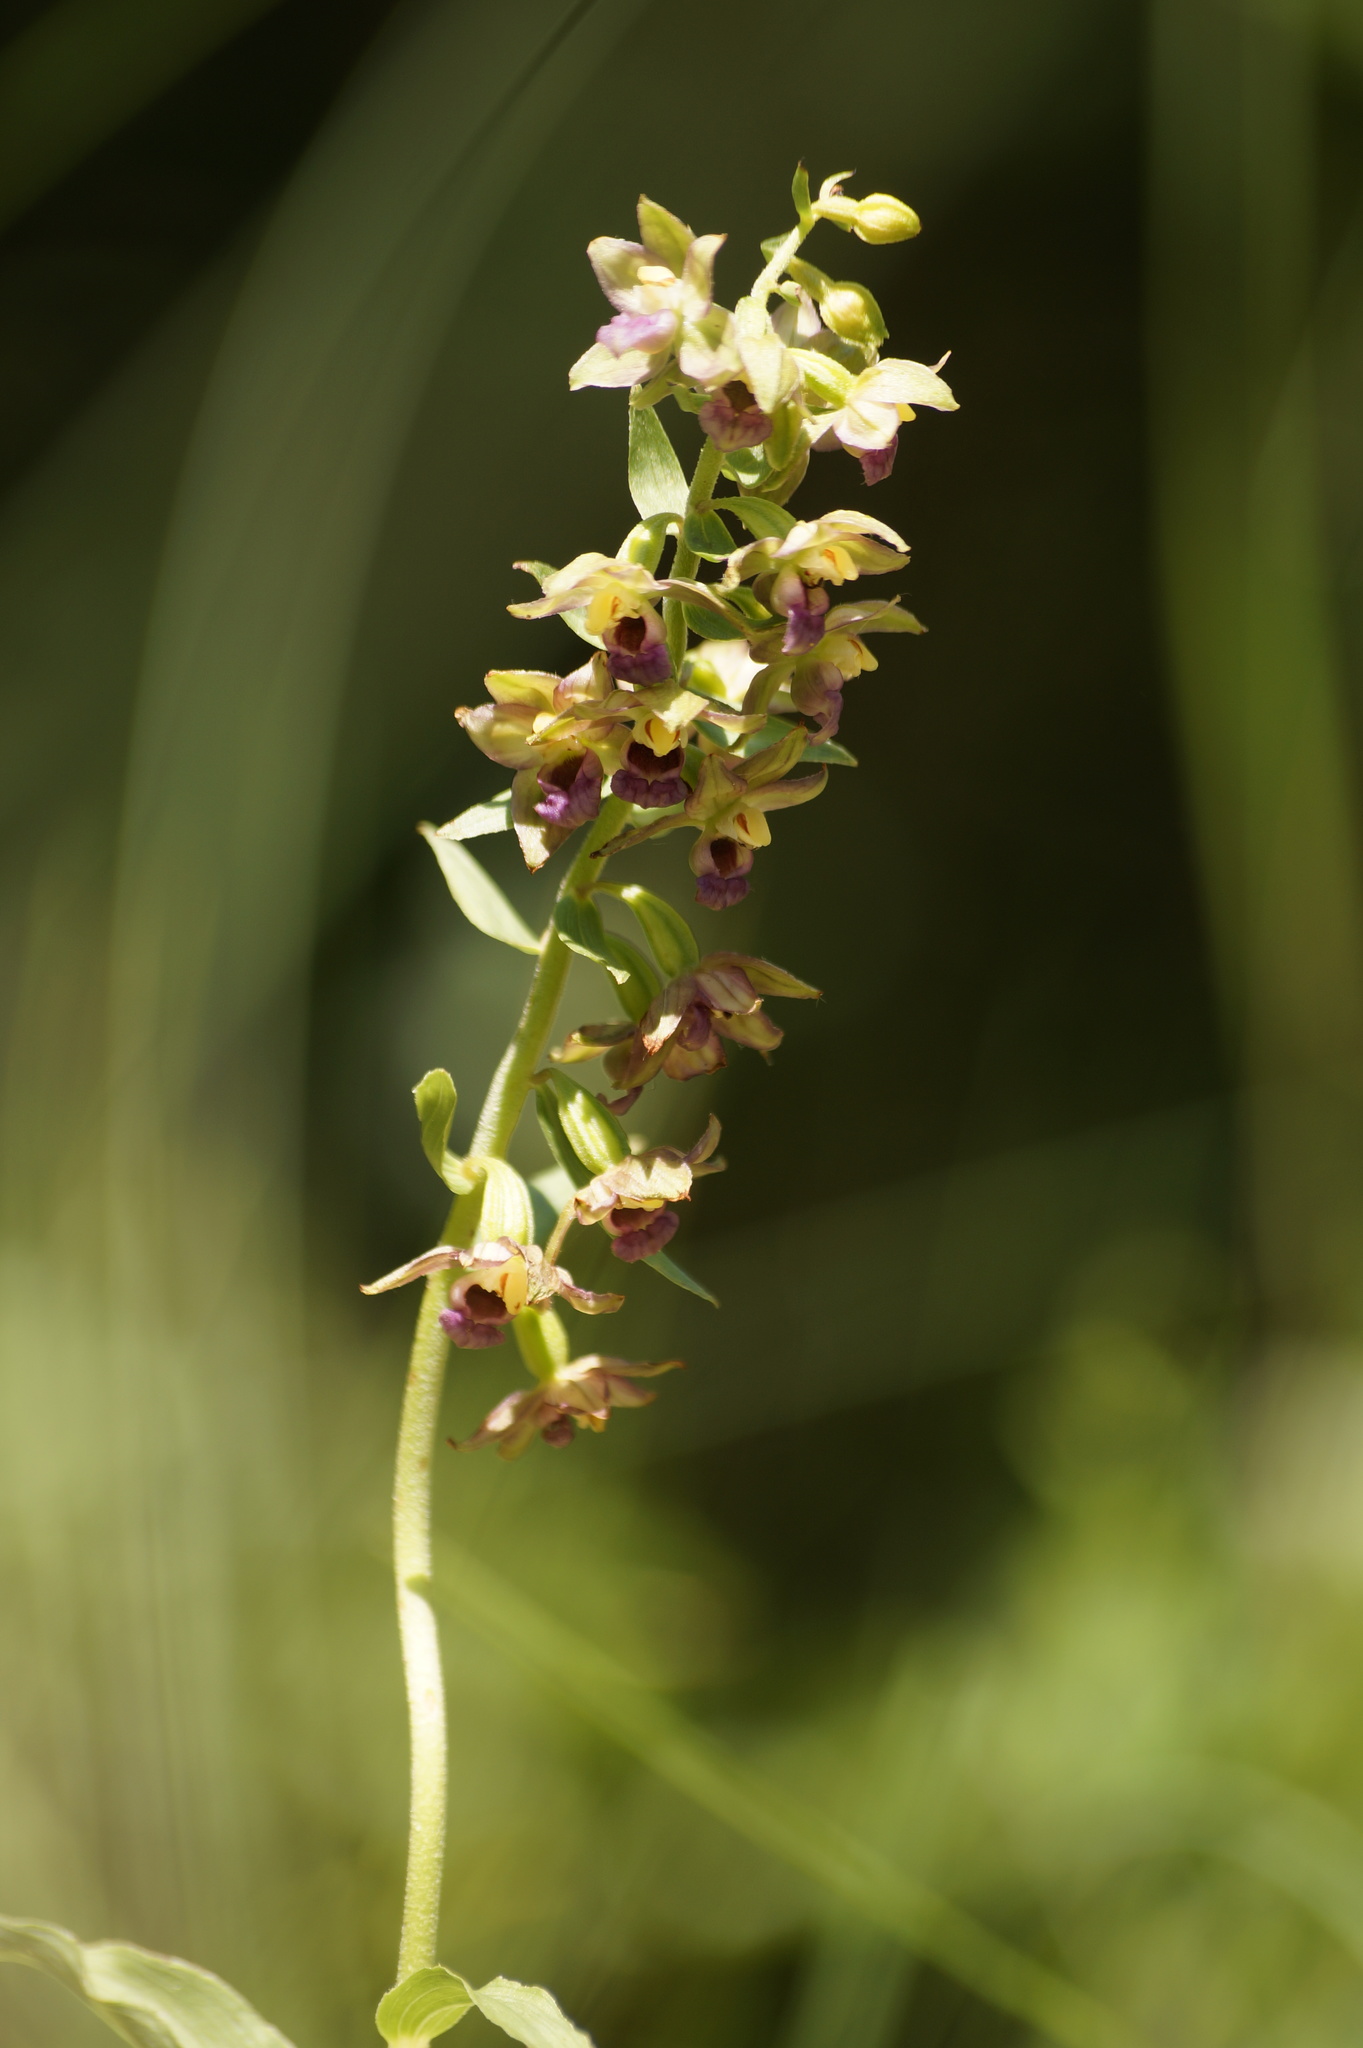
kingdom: Plantae
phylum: Tracheophyta
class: Liliopsida
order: Asparagales
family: Orchidaceae
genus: Epipactis
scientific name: Epipactis helleborine
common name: Broad-leaved helleborine
